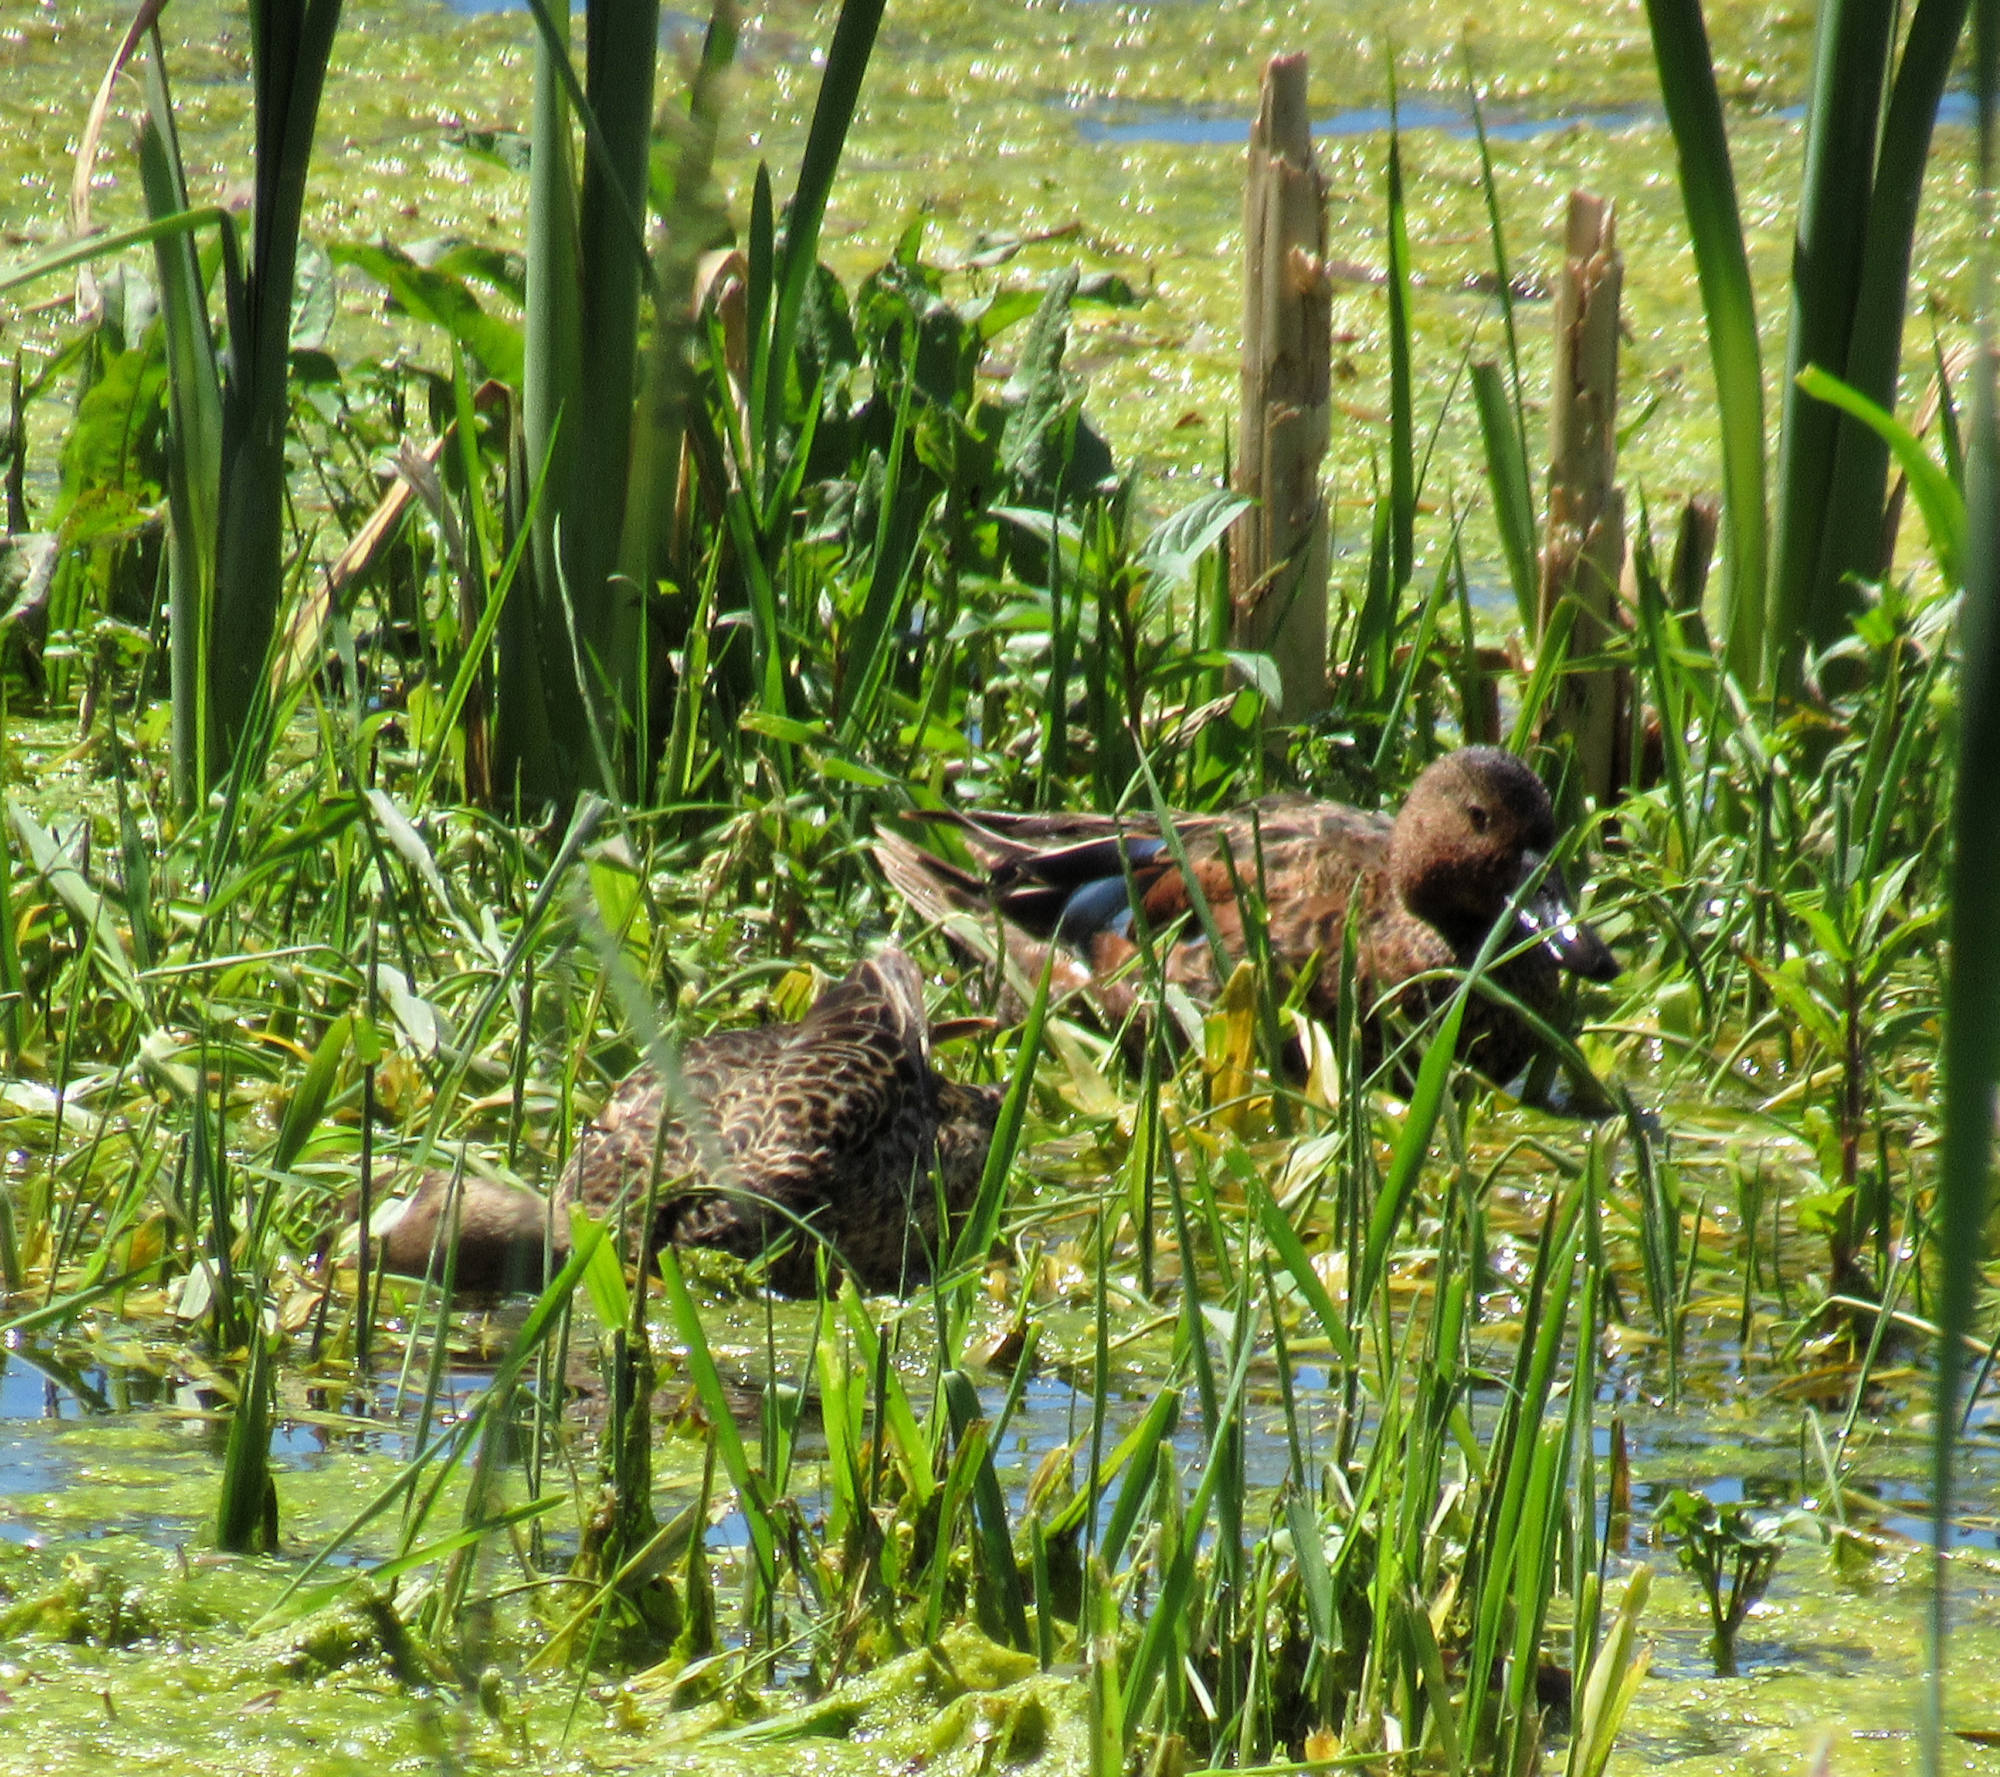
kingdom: Animalia
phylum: Chordata
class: Aves
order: Anseriformes
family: Anatidae
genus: Spatula
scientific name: Spatula cyanoptera
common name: Cinnamon teal
